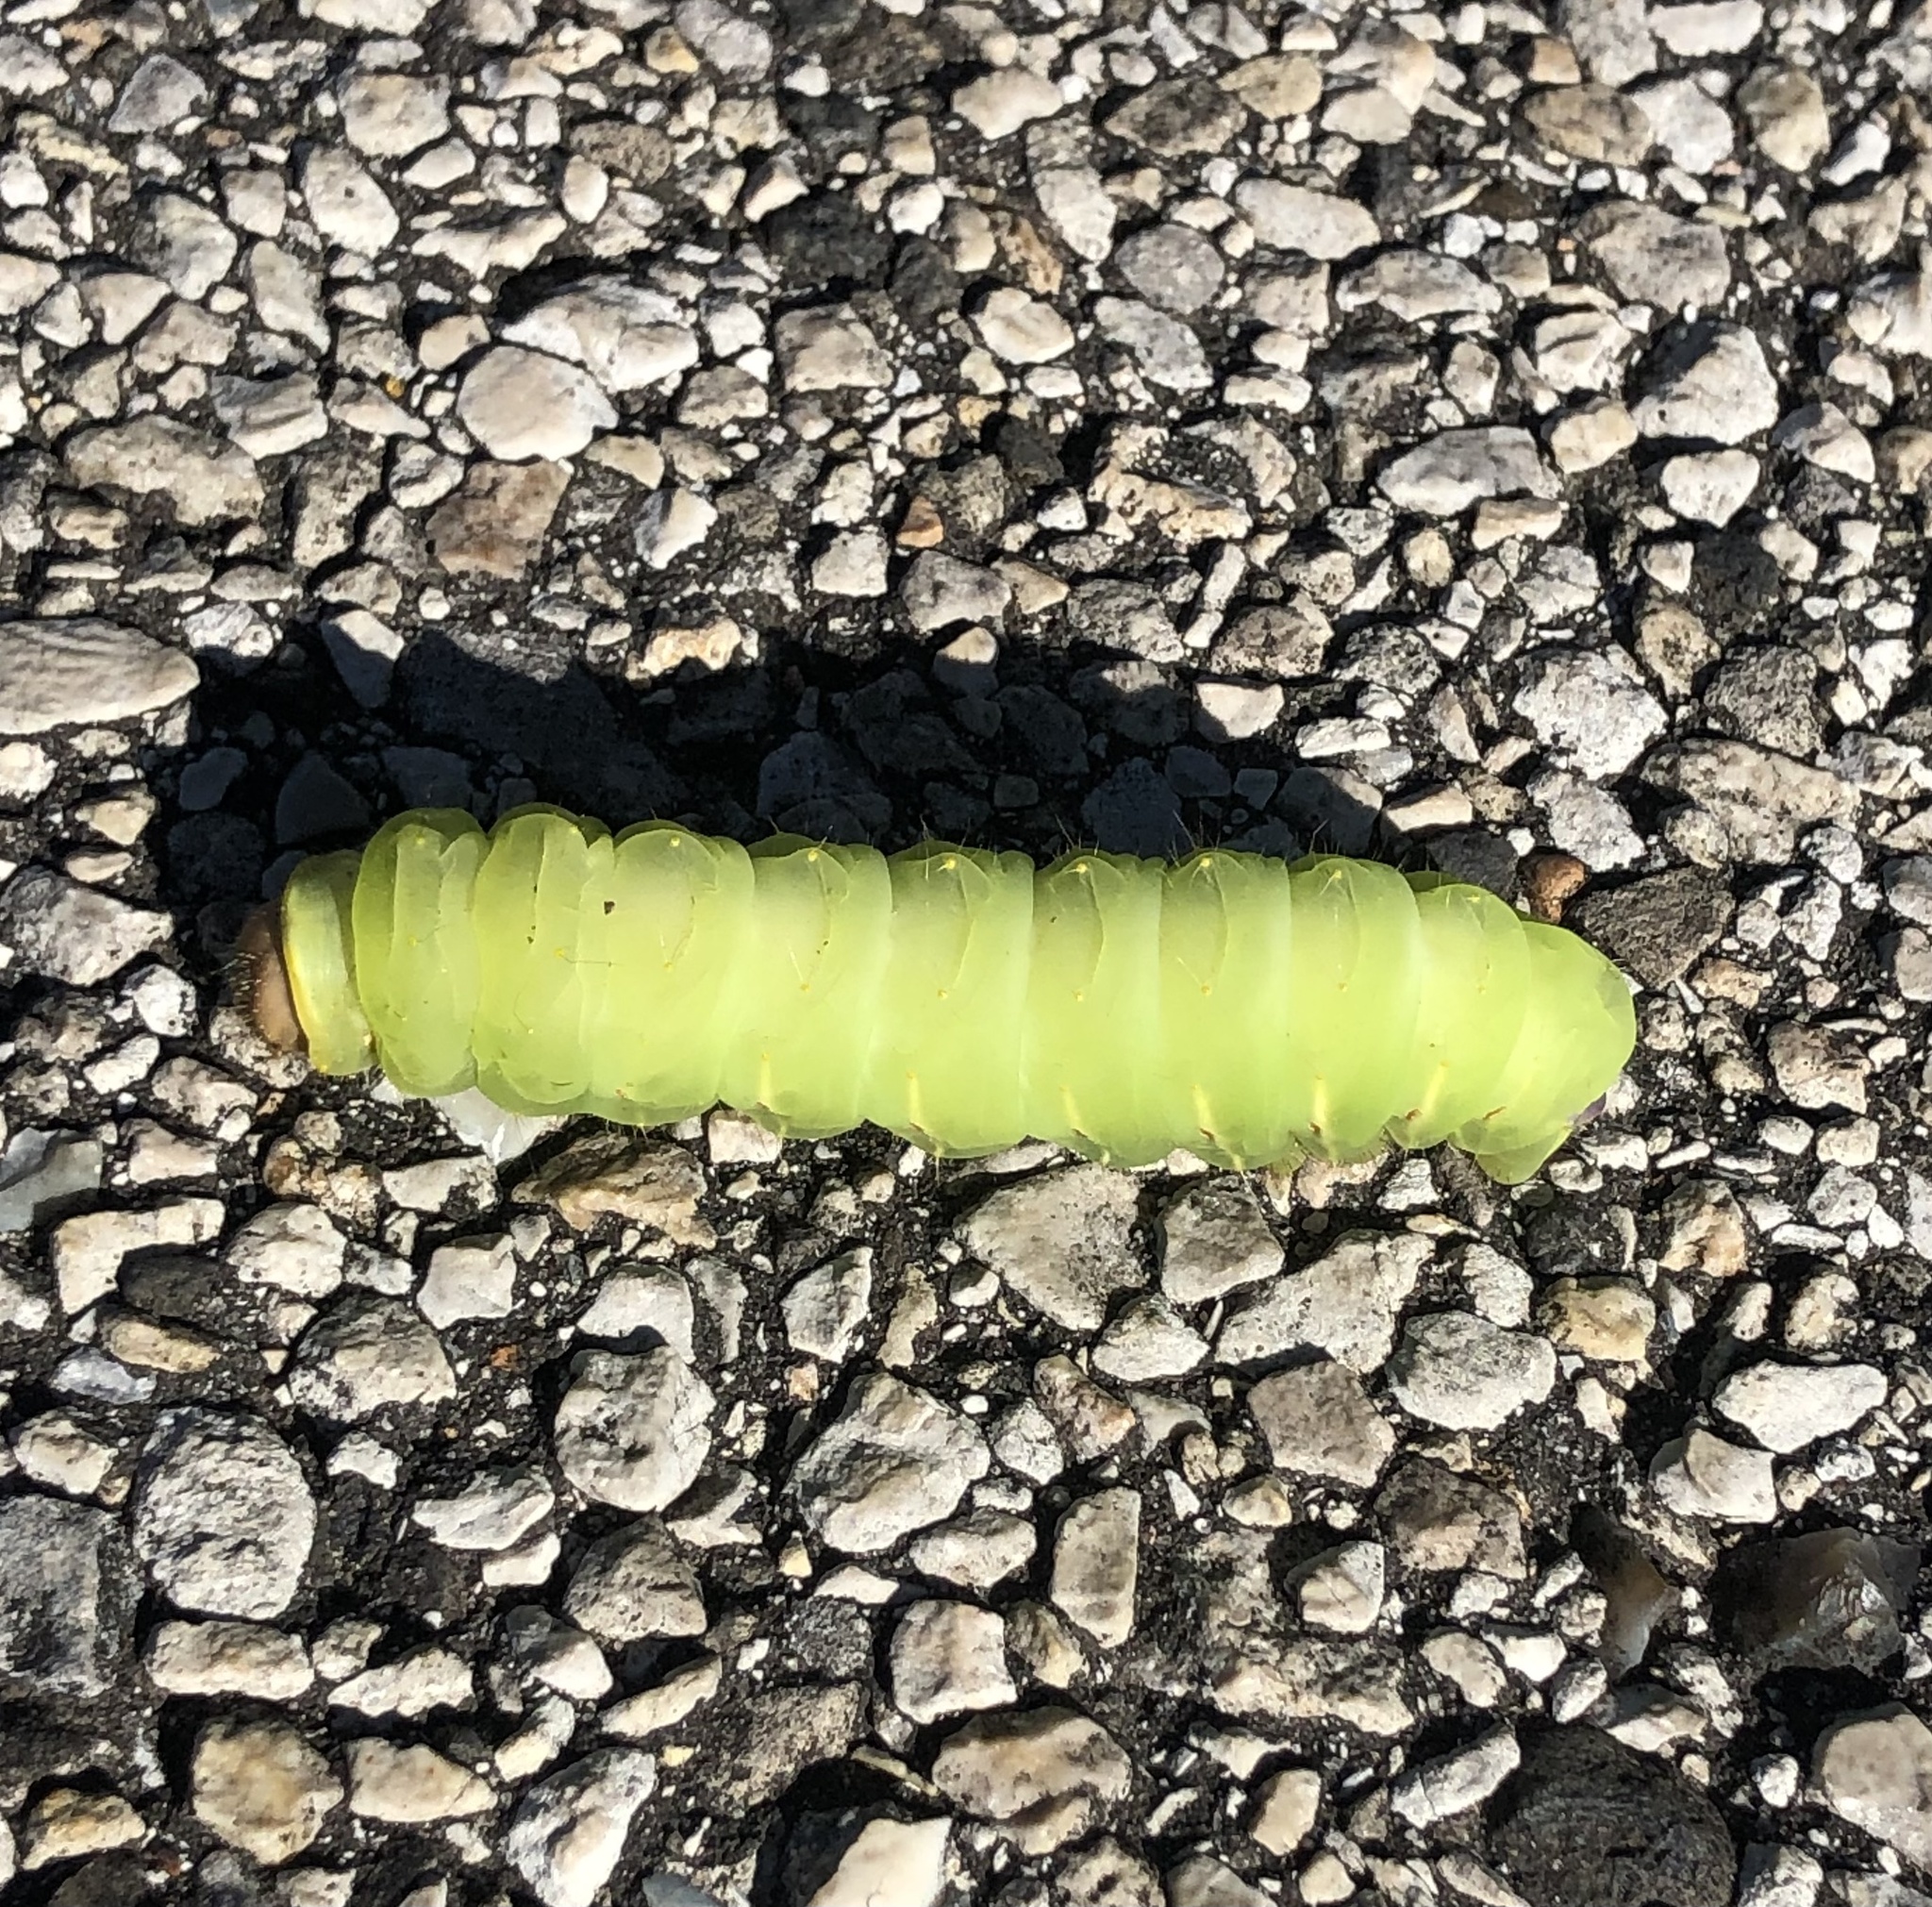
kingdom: Animalia
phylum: Arthropoda
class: Insecta
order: Lepidoptera
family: Saturniidae
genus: Antheraea
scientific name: Antheraea polyphemus
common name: Polyphemus moth
